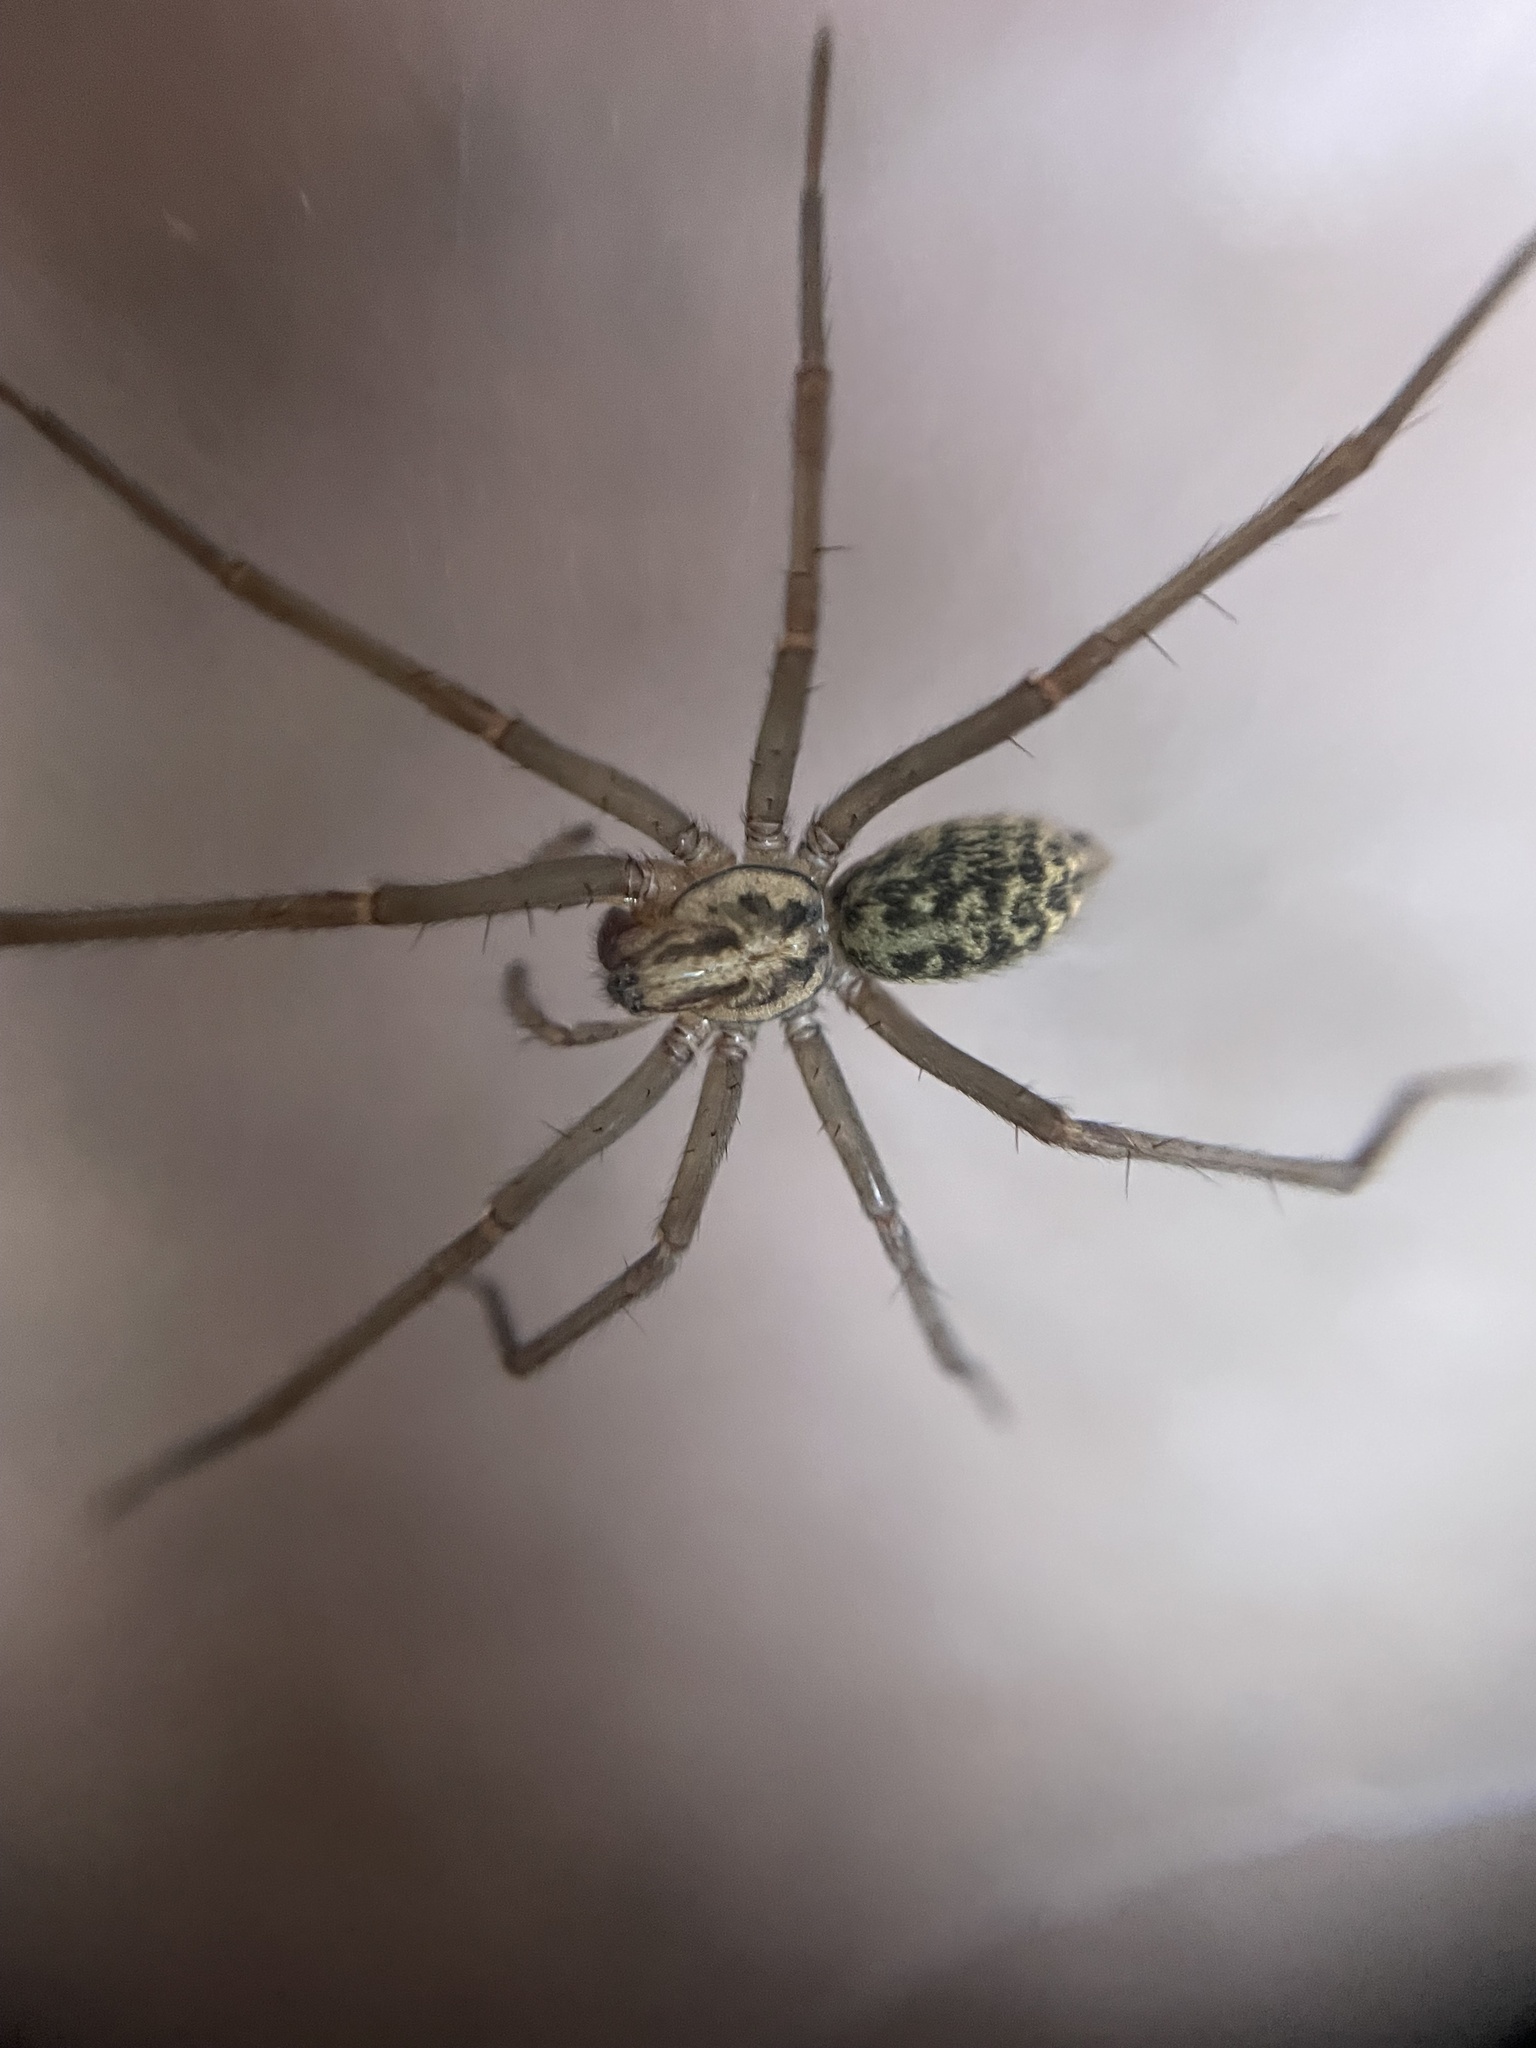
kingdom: Animalia
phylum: Arthropoda
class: Arachnida
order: Araneae
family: Agelenidae
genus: Eratigena
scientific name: Eratigena duellica
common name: Giant house spider
